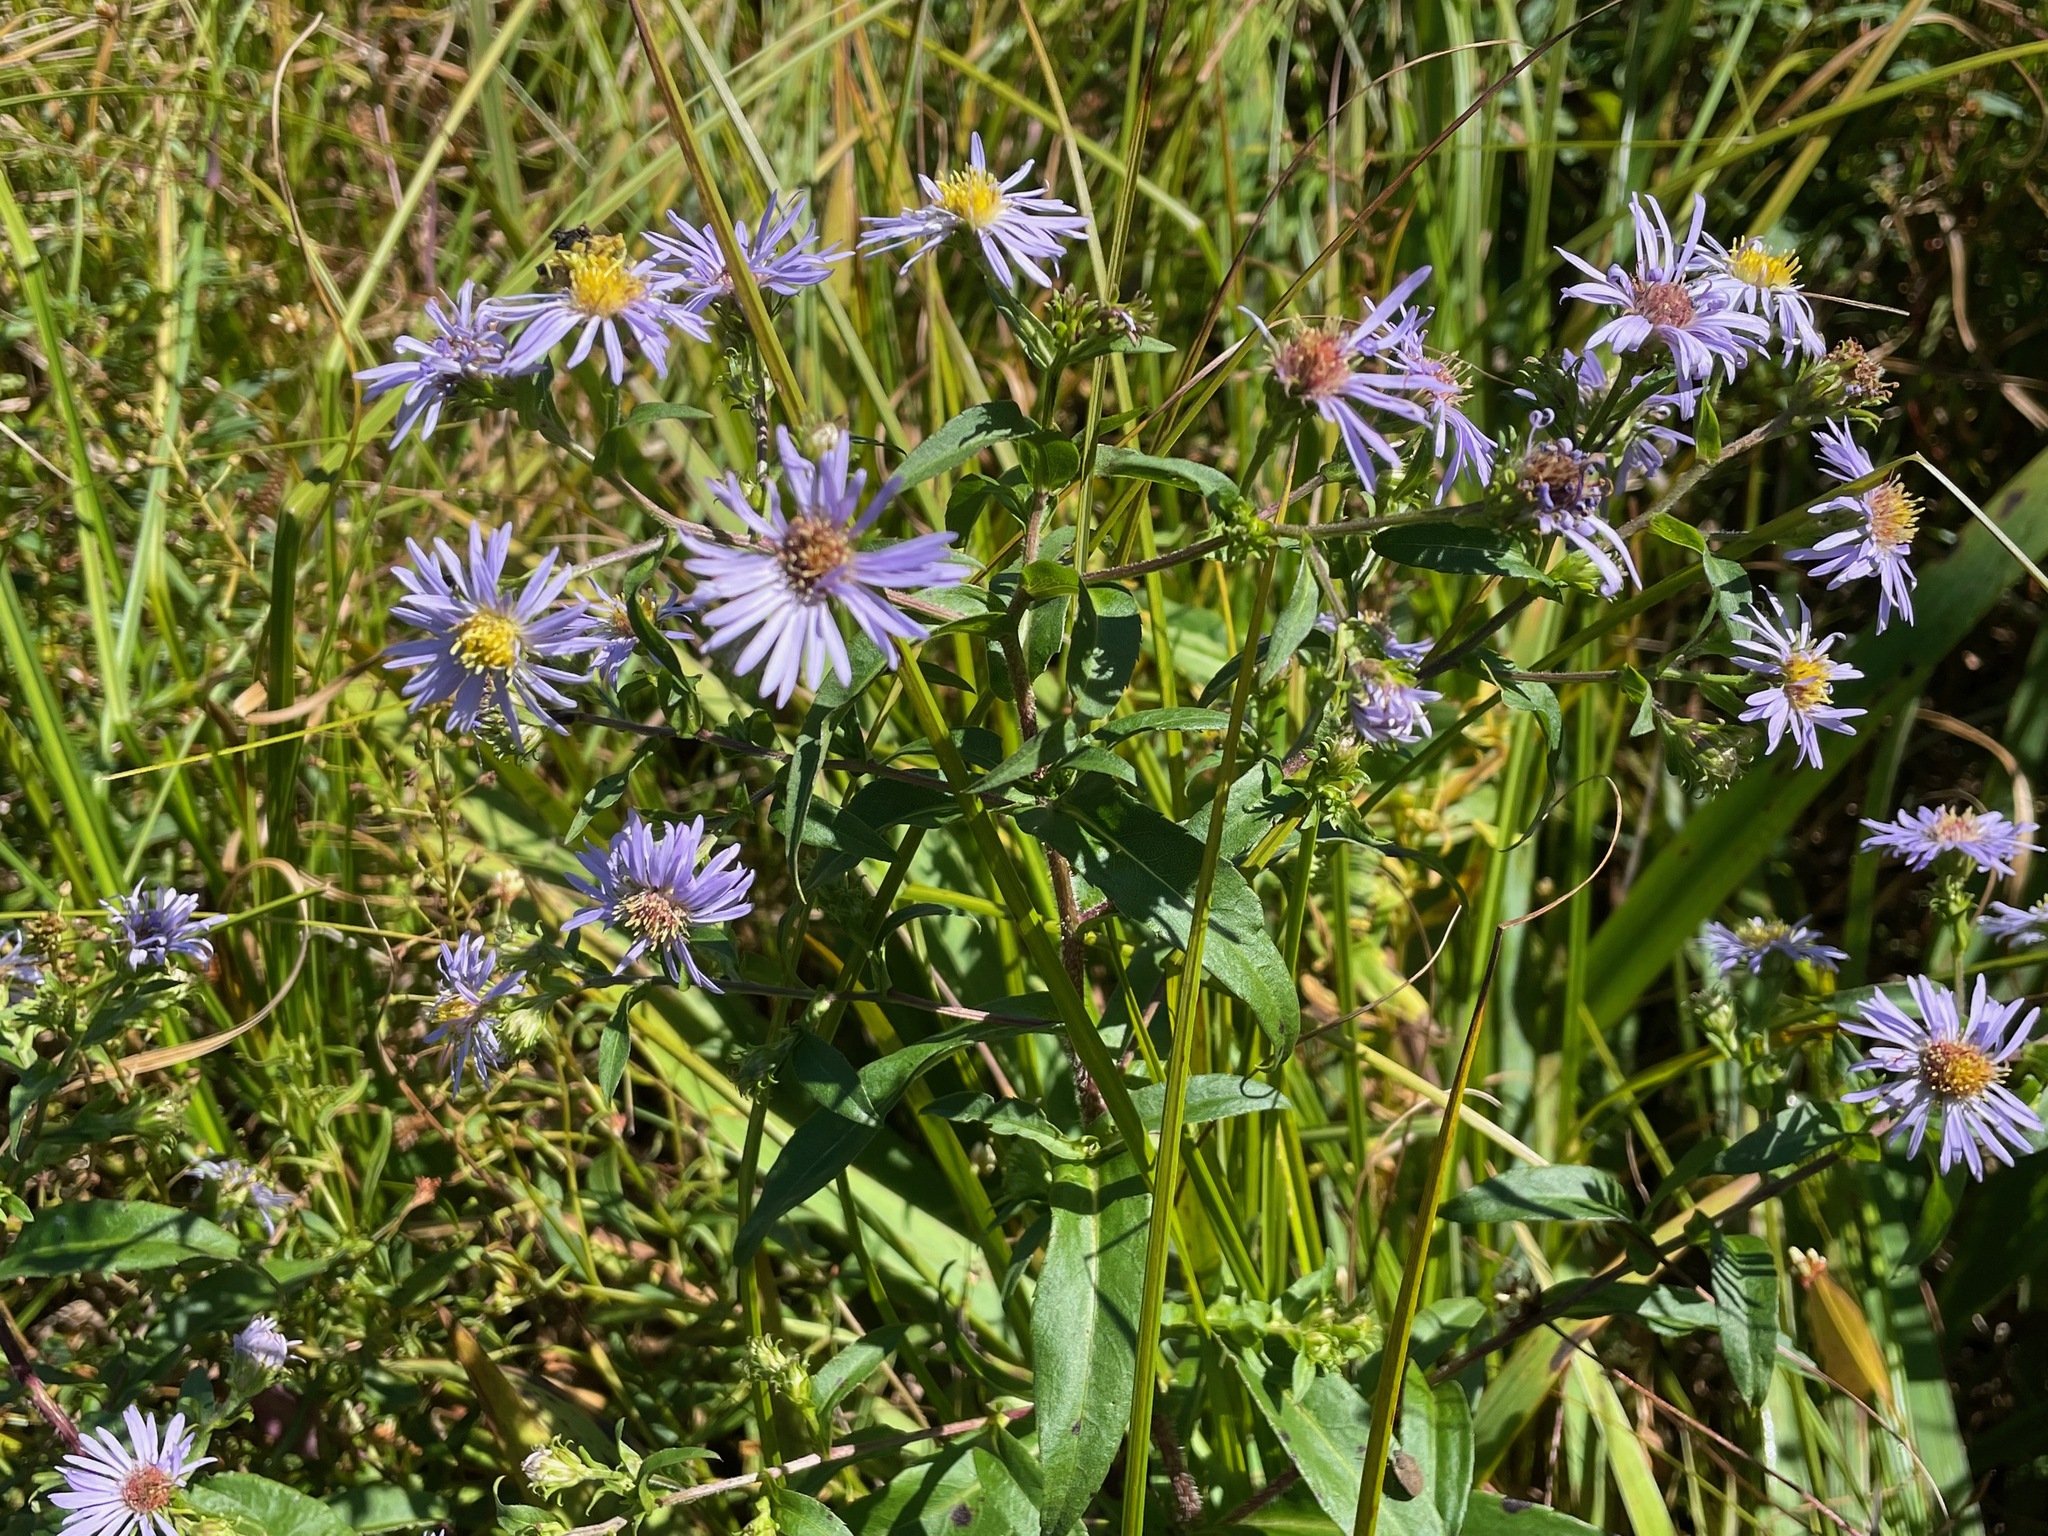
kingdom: Plantae
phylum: Tracheophyta
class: Magnoliopsida
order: Asterales
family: Asteraceae
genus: Symphyotrichum
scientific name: Symphyotrichum puniceum
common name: Bog aster
